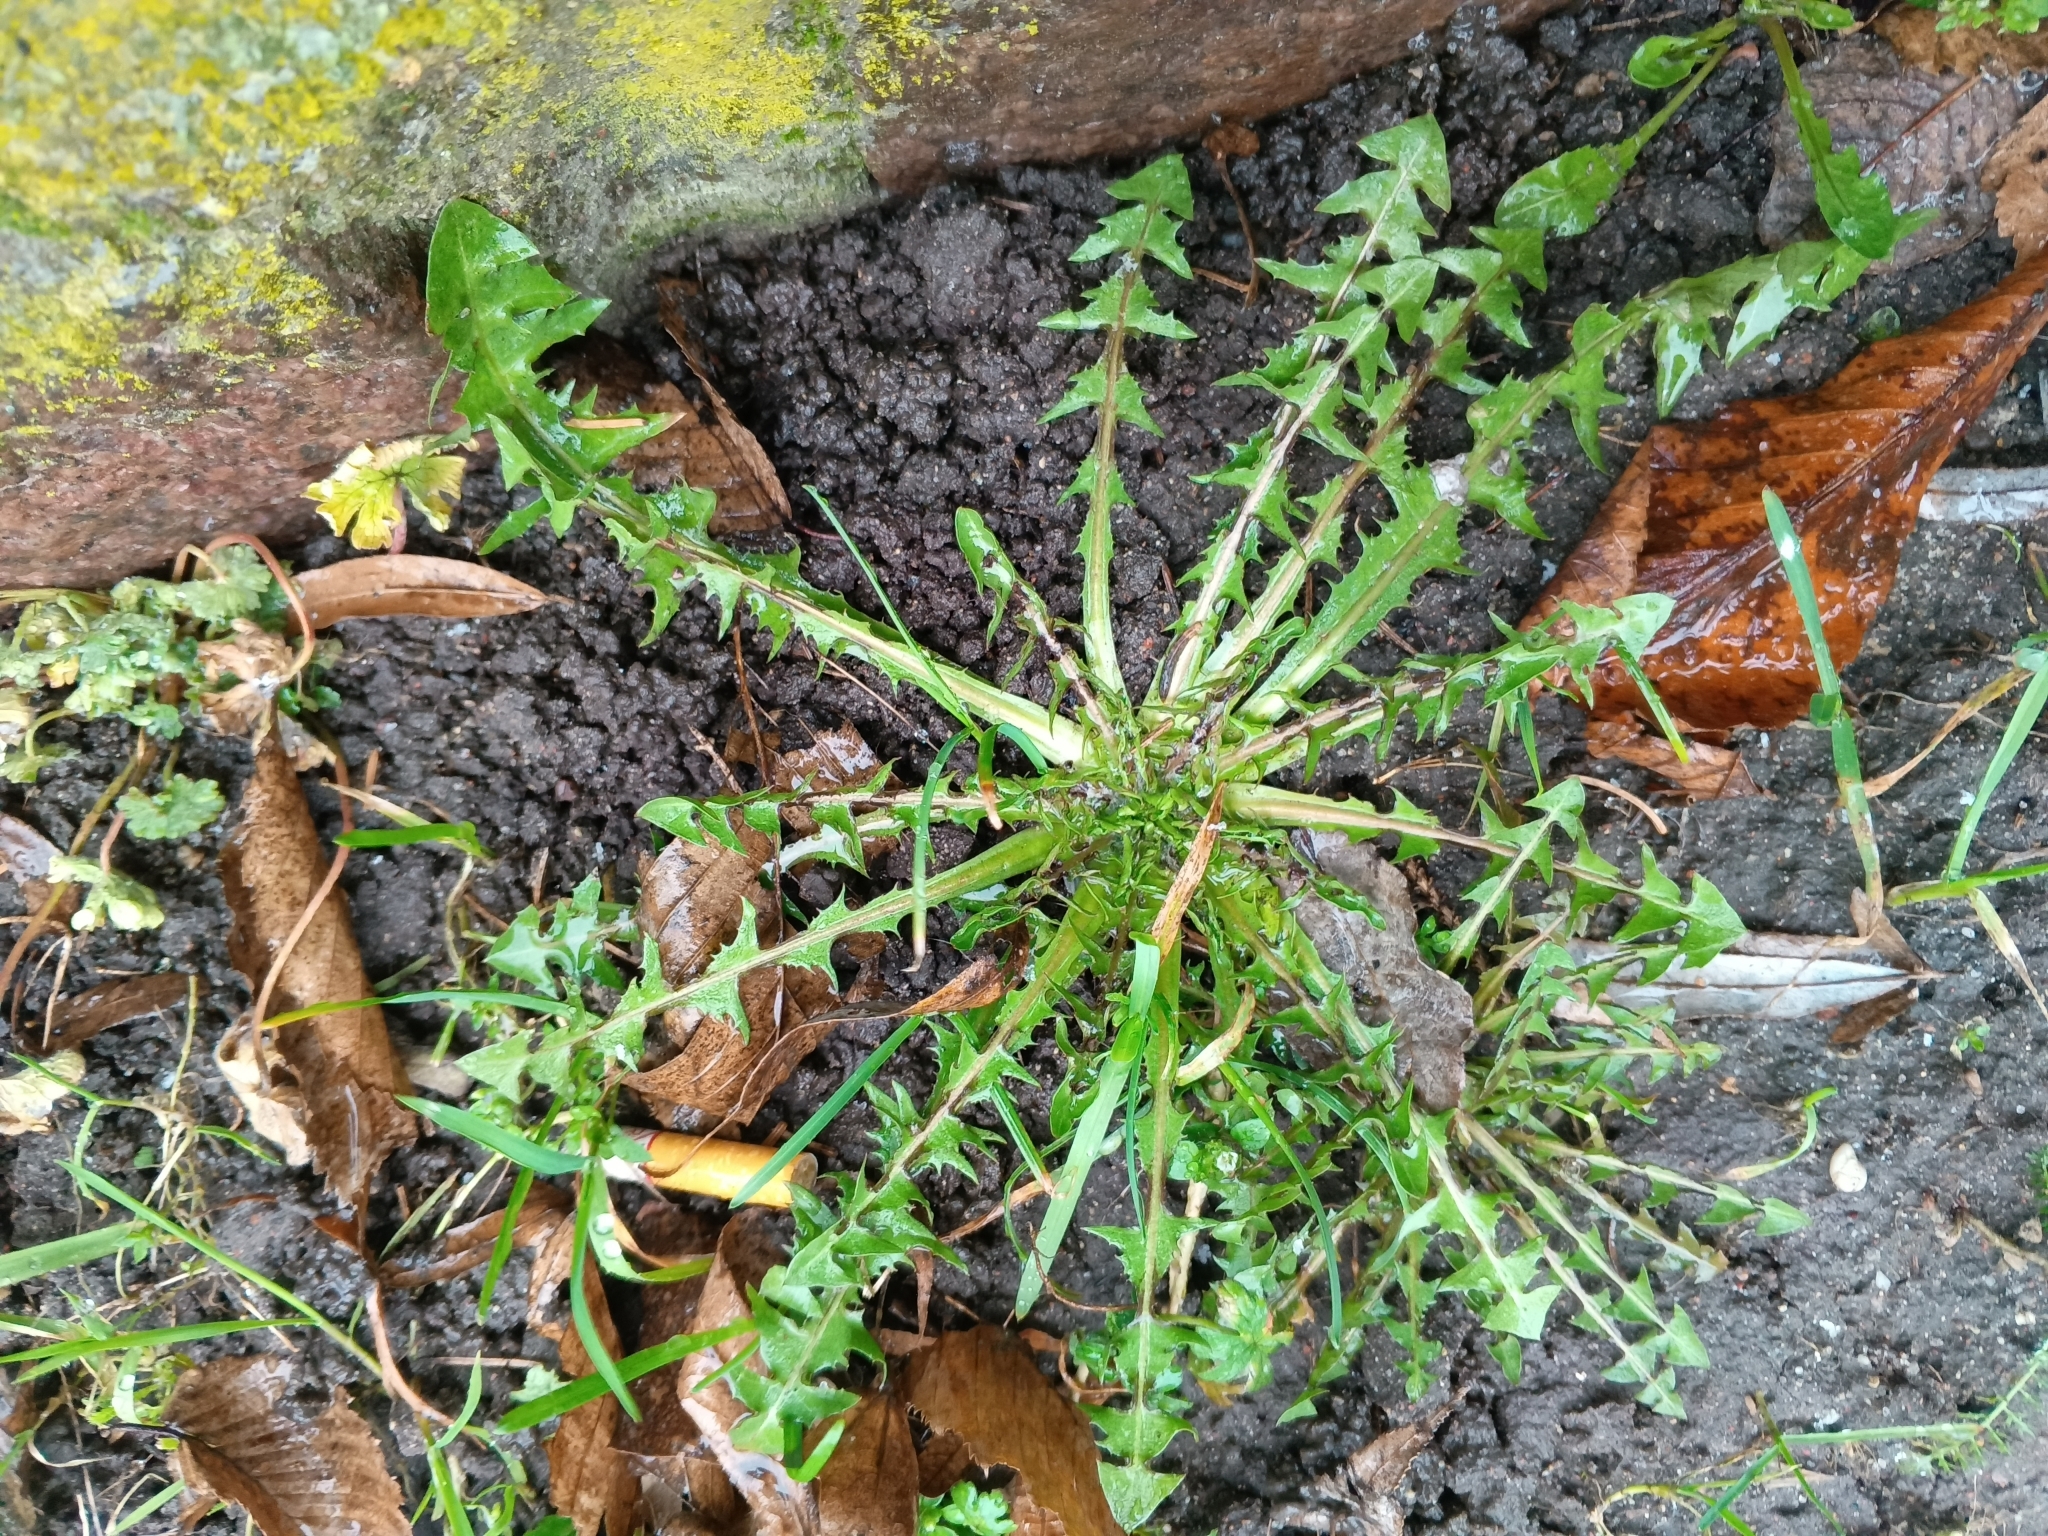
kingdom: Plantae
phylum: Tracheophyta
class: Magnoliopsida
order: Asterales
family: Asteraceae
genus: Taraxacum
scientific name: Taraxacum officinale
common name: Common dandelion
